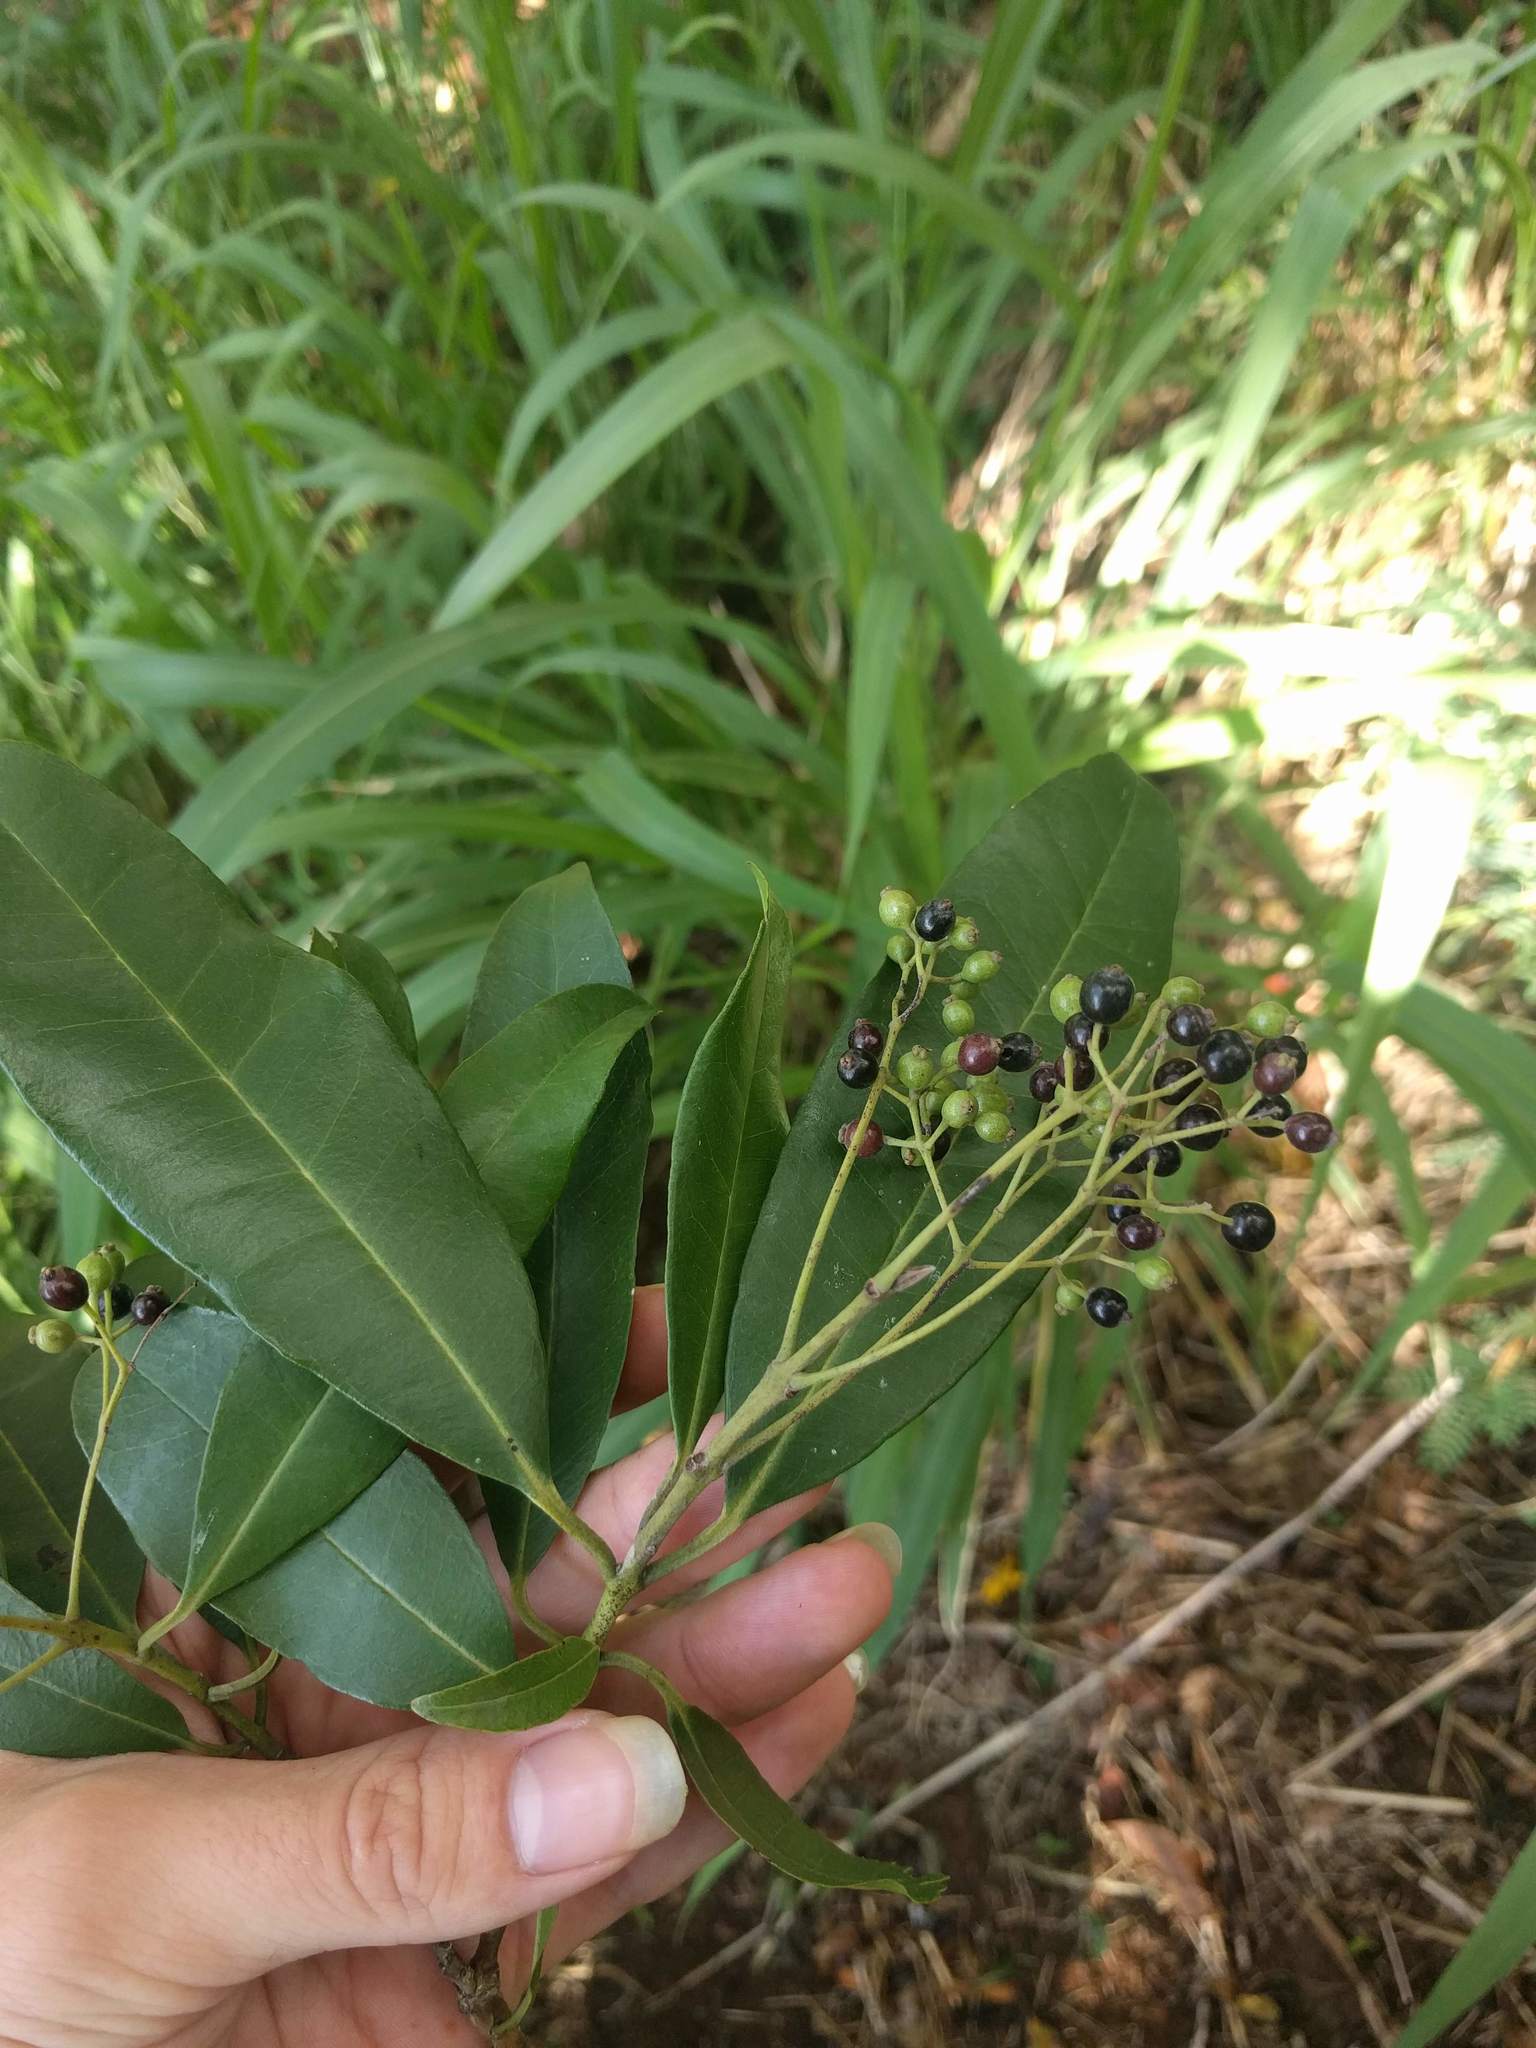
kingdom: Plantae
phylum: Tracheophyta
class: Magnoliopsida
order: Myrtales
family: Myrtaceae
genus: Pimenta
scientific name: Pimenta dioica
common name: Allspice
